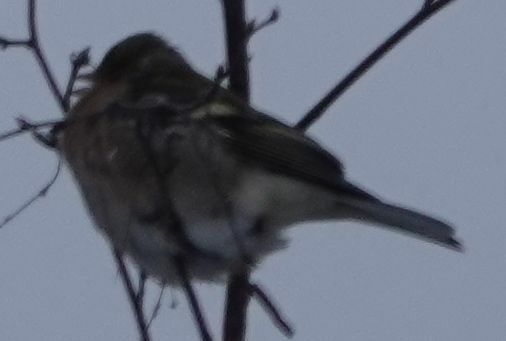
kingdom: Animalia
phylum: Chordata
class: Aves
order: Passeriformes
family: Fringillidae
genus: Fringilla
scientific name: Fringilla coelebs
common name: Common chaffinch
